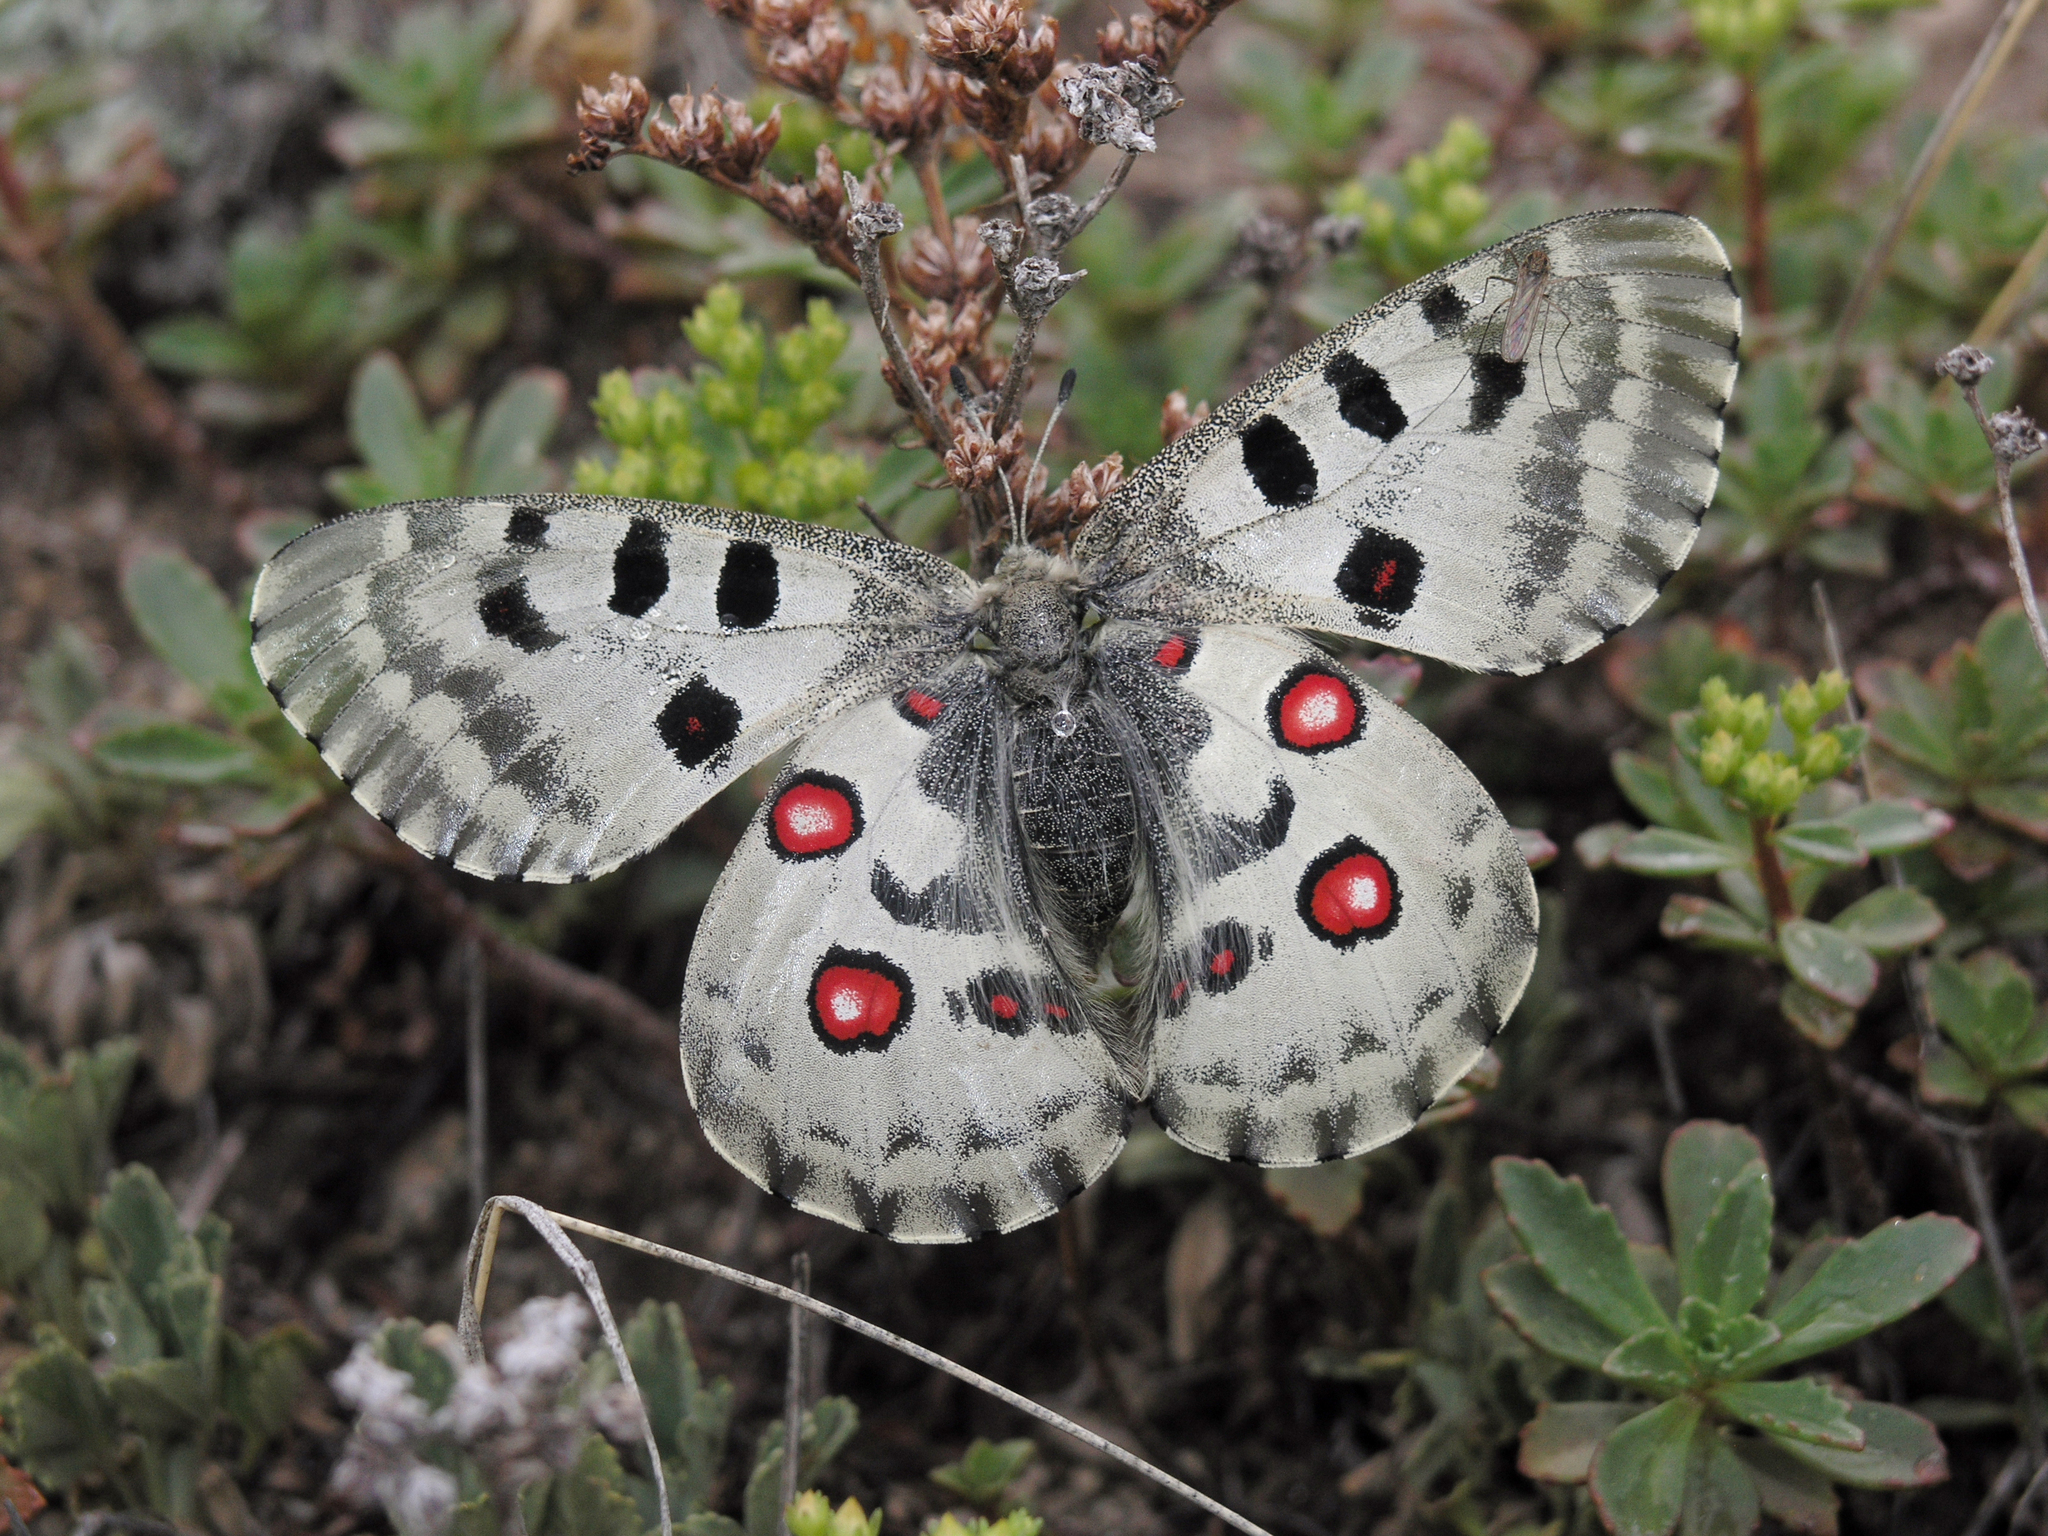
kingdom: Plantae
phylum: Tracheophyta
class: Magnoliopsida
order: Saxifragales
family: Crassulaceae
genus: Phedimus
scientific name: Phedimus hybridus
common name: Hybrid stonecrop
